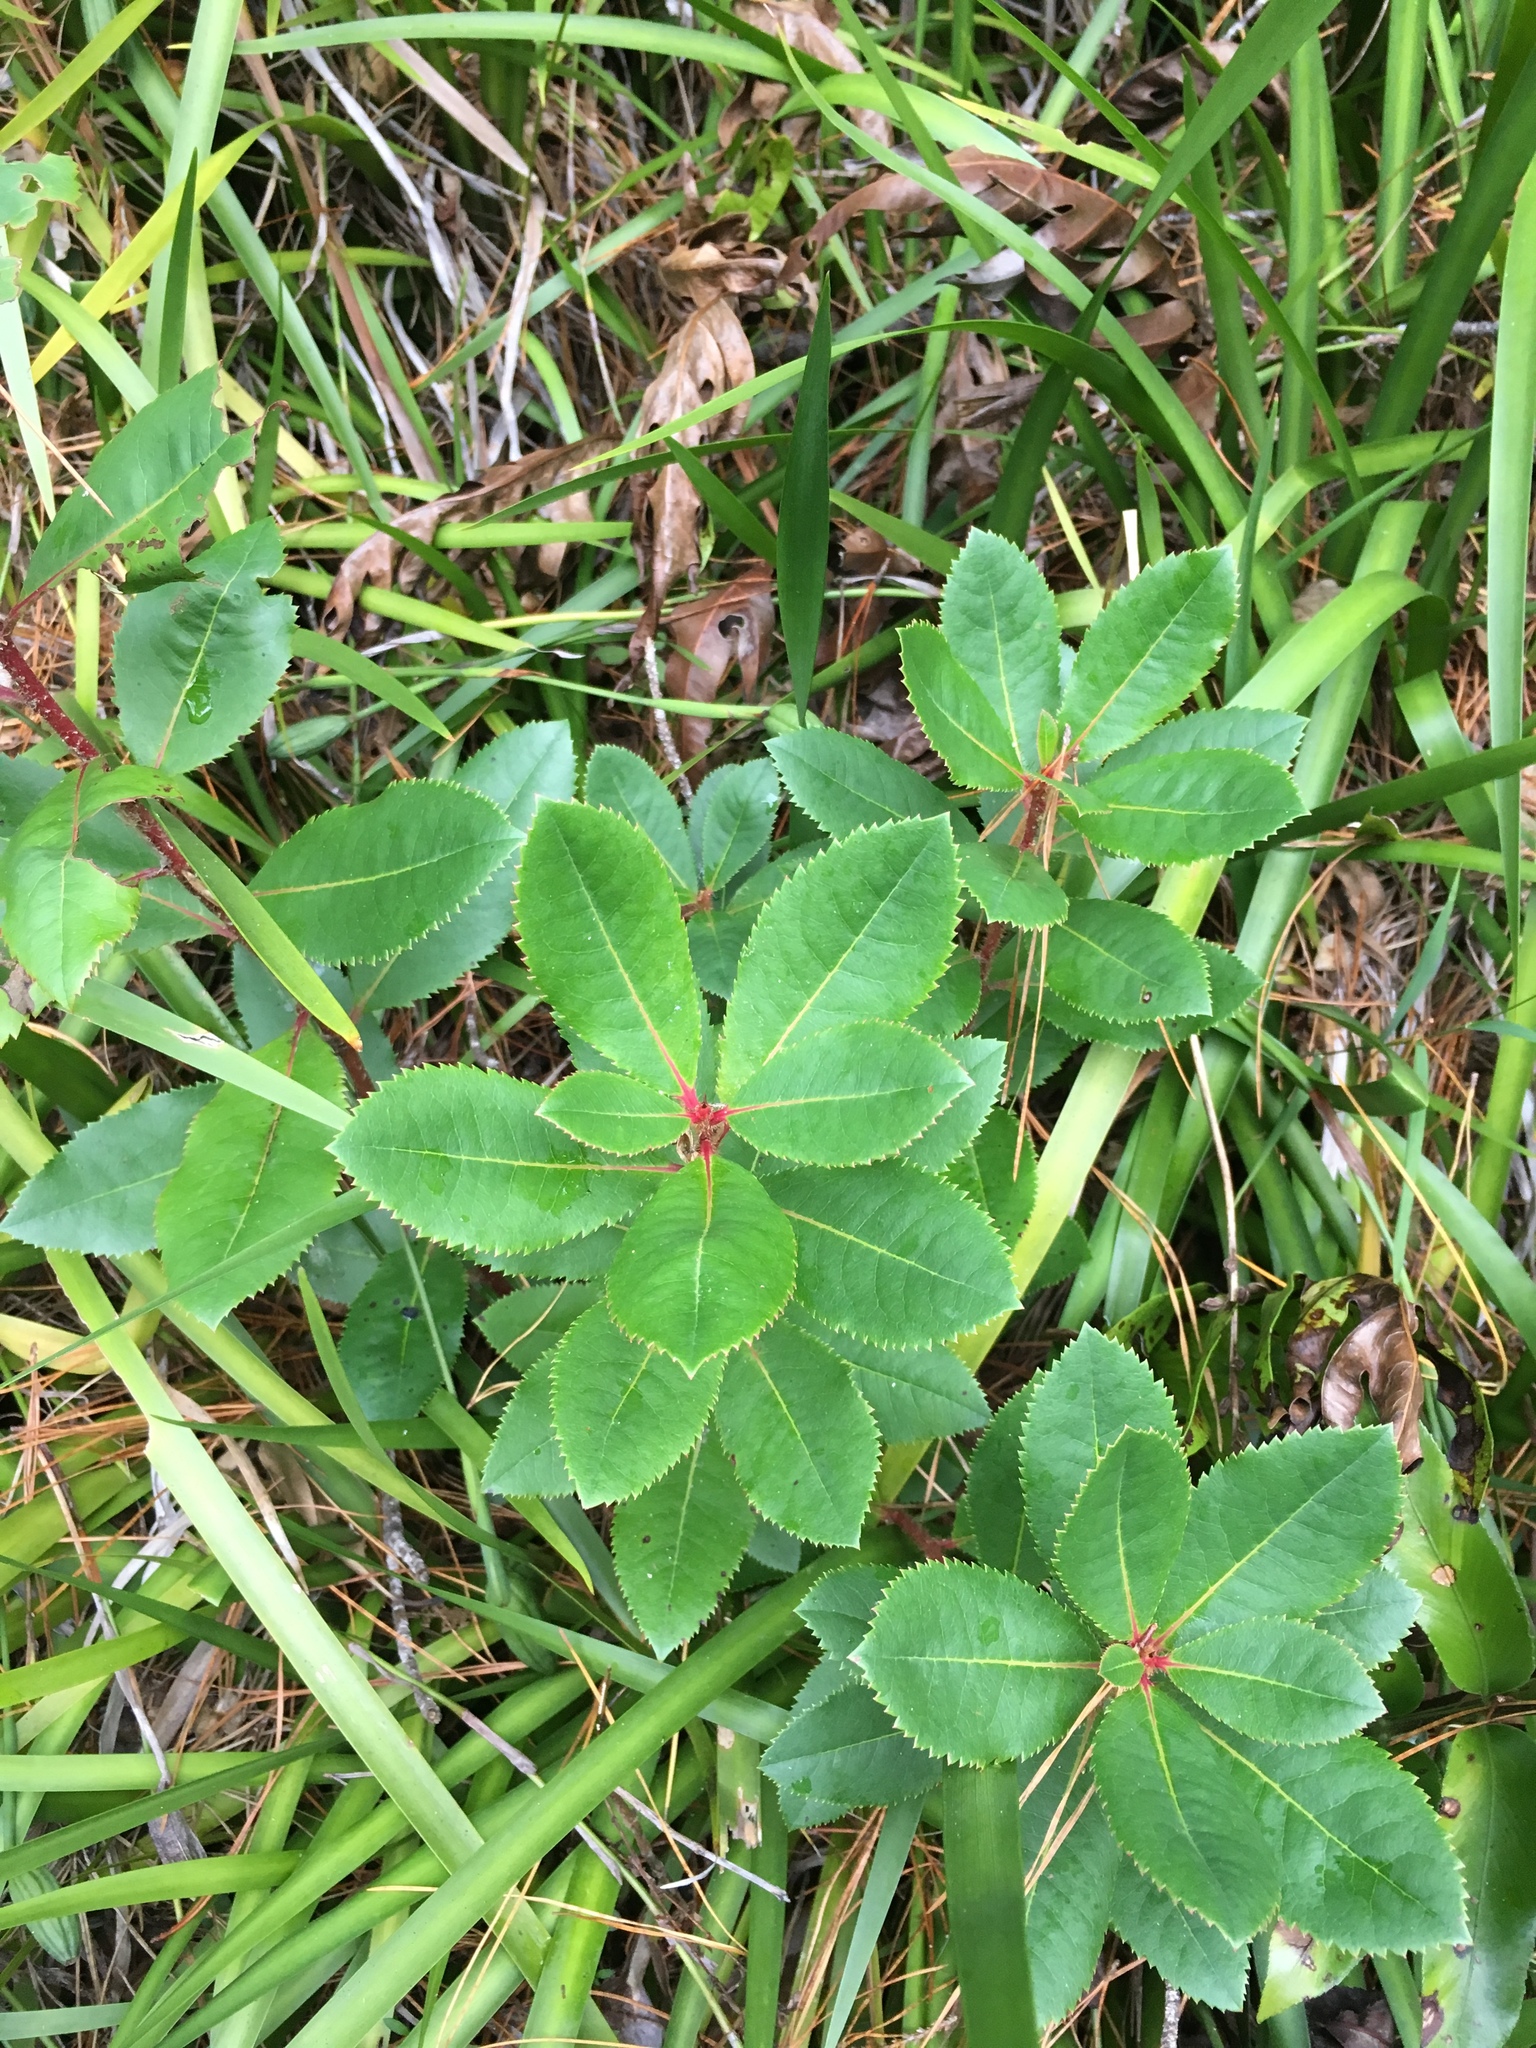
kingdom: Plantae
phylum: Tracheophyta
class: Magnoliopsida
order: Ericales
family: Ericaceae
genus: Arbutus
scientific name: Arbutus unedo
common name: Strawberry-tree
